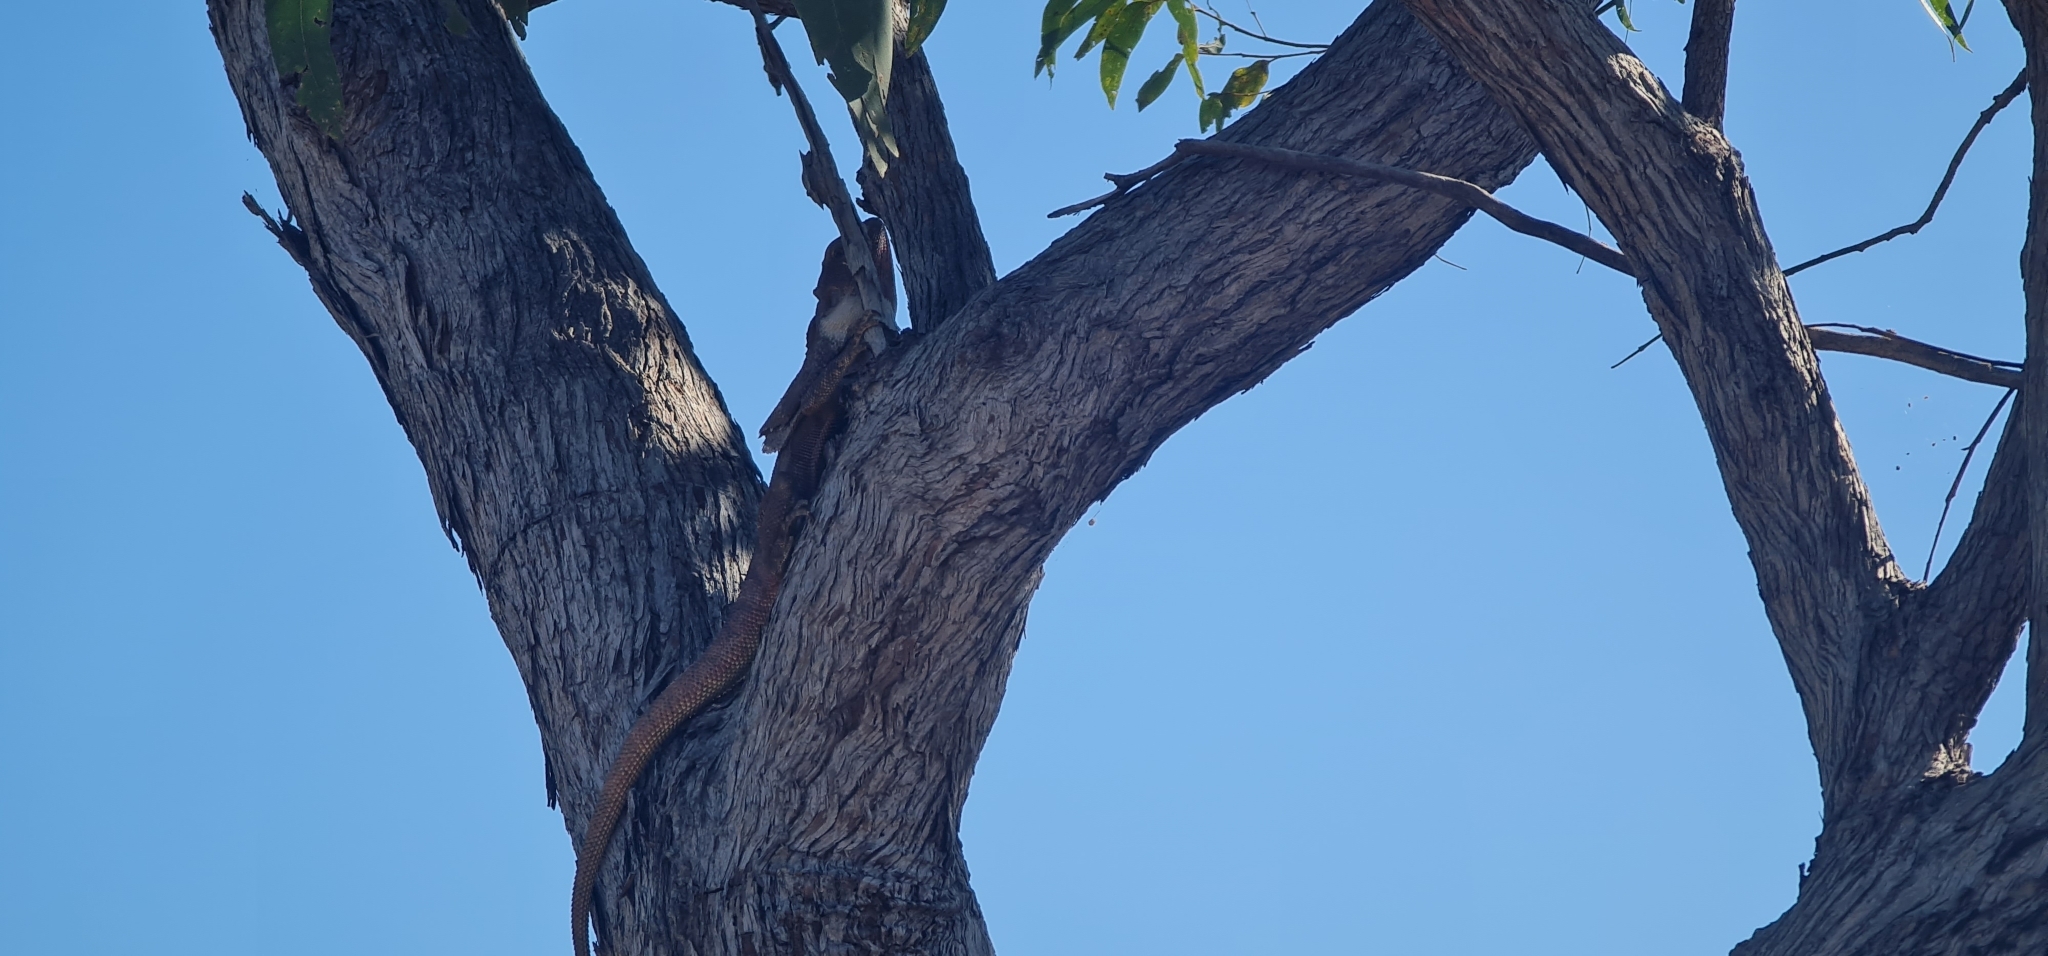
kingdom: Animalia
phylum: Chordata
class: Squamata
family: Agamidae
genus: Chlamydosaurus
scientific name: Chlamydosaurus kingii
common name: Frilled lizard
